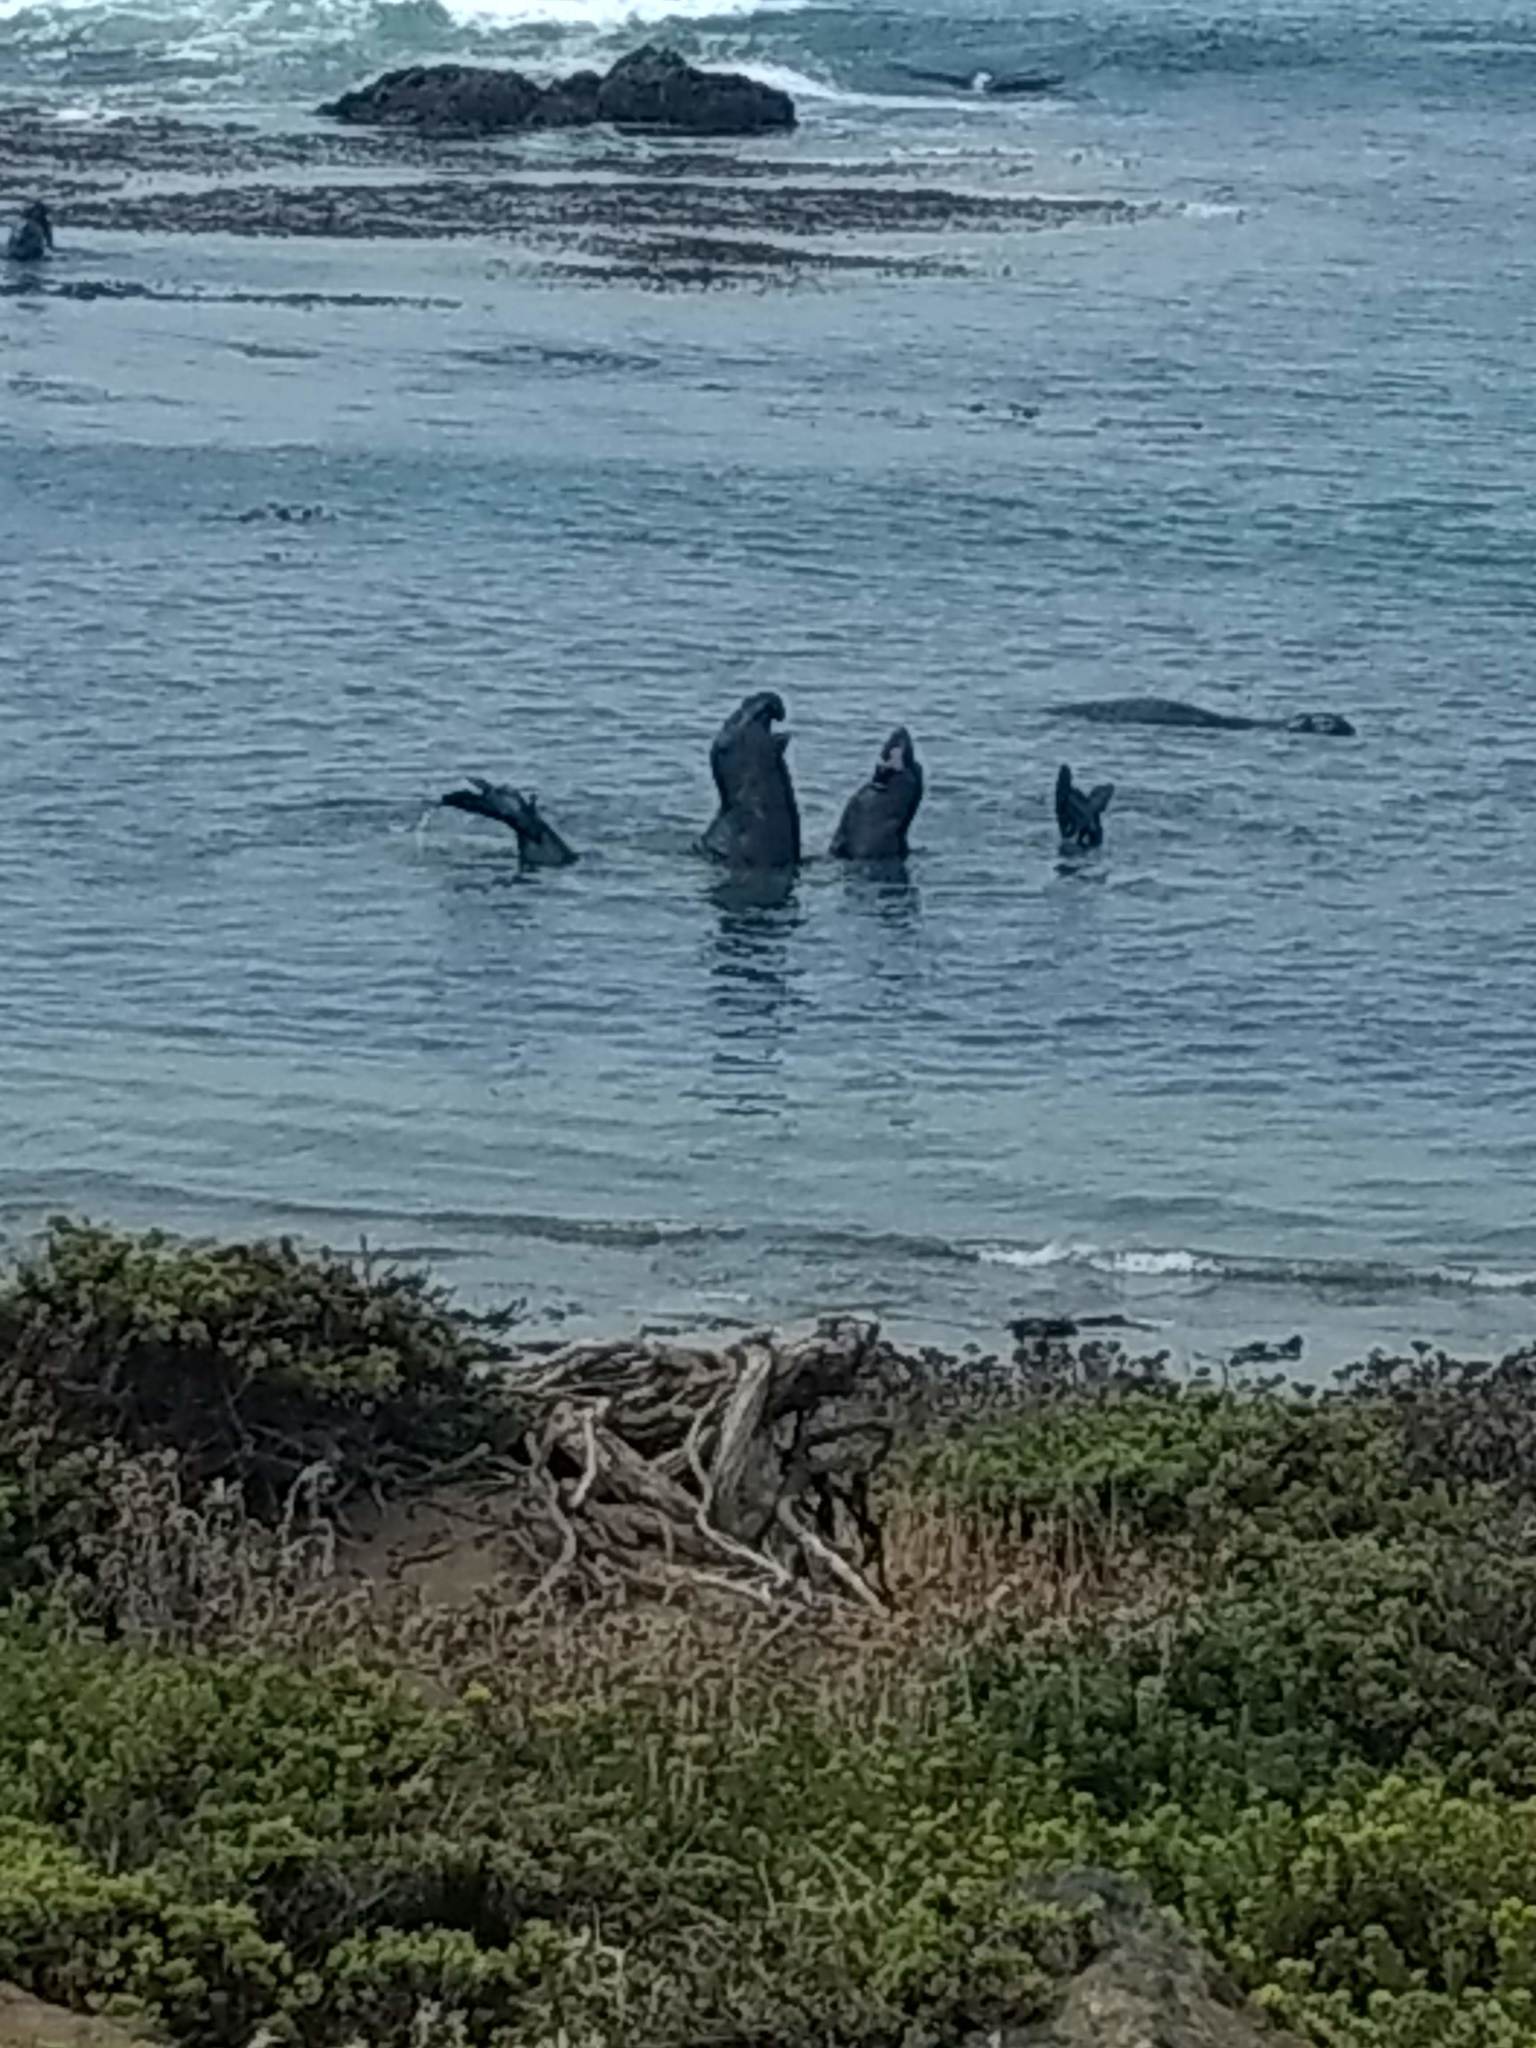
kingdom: Animalia
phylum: Chordata
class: Mammalia
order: Carnivora
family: Phocidae
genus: Mirounga
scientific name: Mirounga angustirostris
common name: Northern elephant seal
